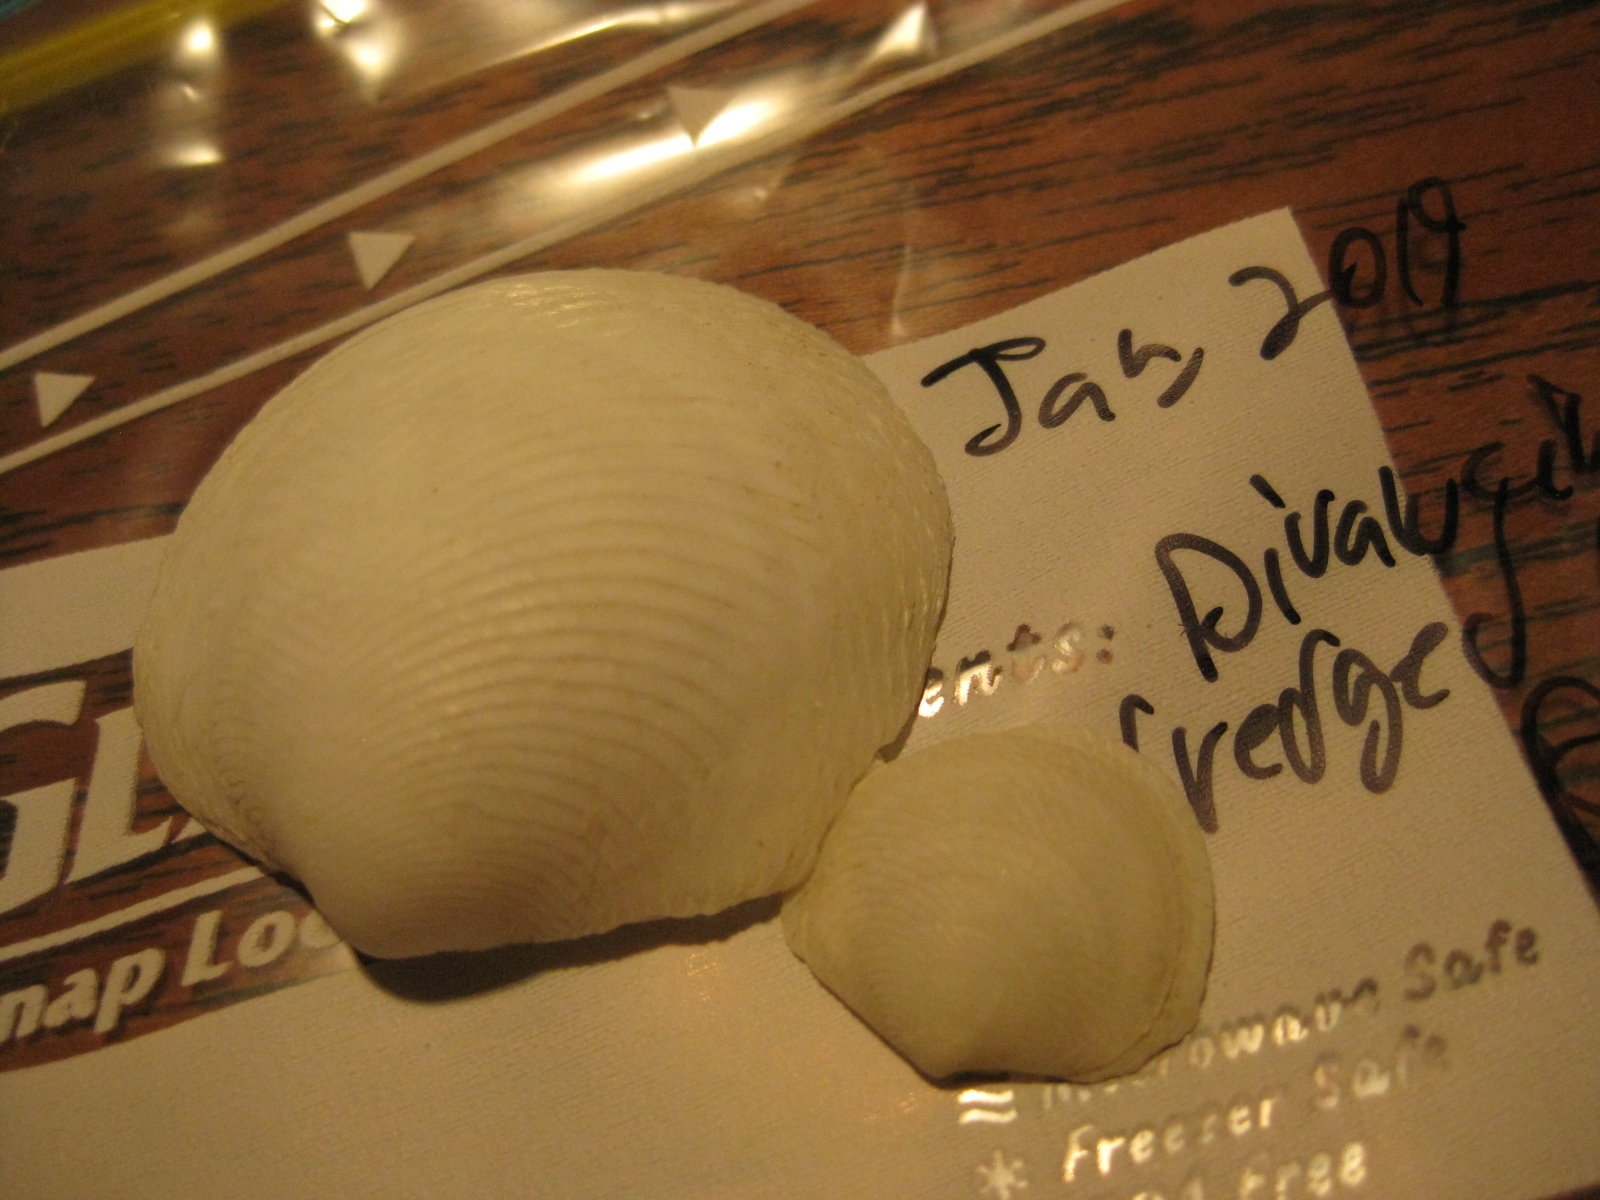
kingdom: Animalia
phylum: Mollusca
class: Bivalvia
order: Lucinida
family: Lucinidae
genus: Divalucina
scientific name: Divalucina cumingi
